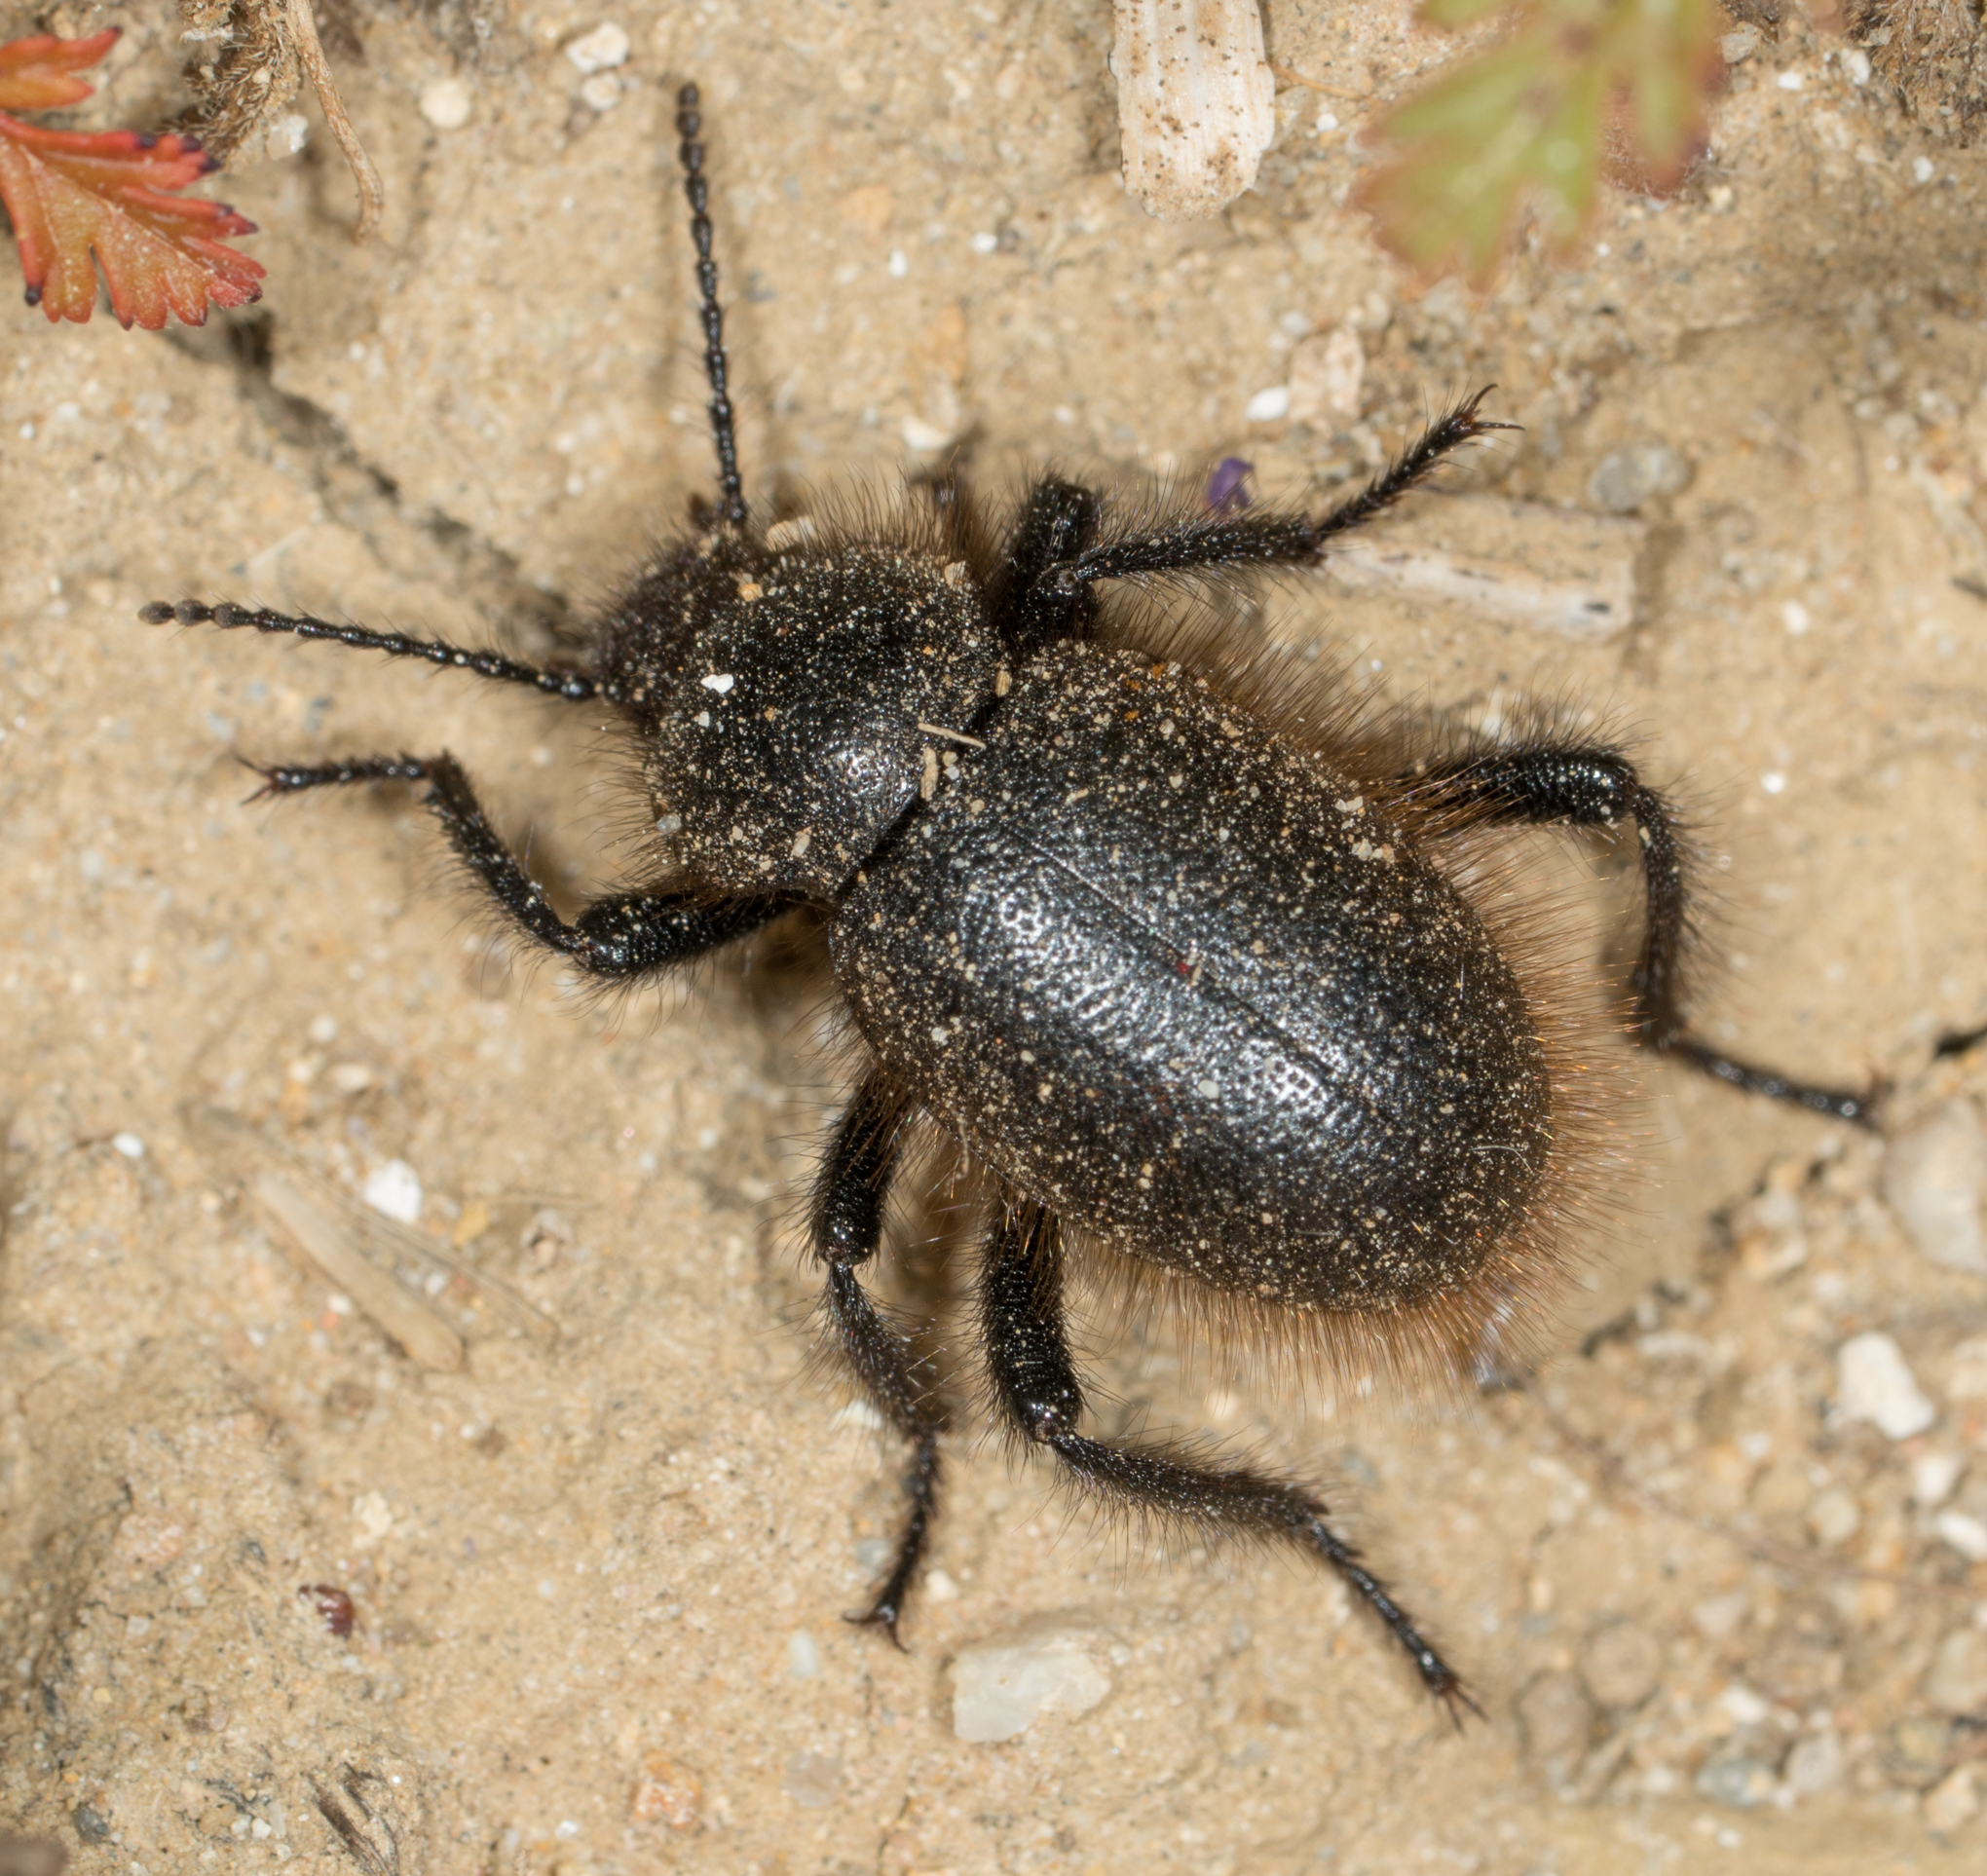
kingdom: Animalia
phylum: Arthropoda
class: Insecta
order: Coleoptera
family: Tenebrionidae
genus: Eleodes
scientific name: Eleodes osculans
